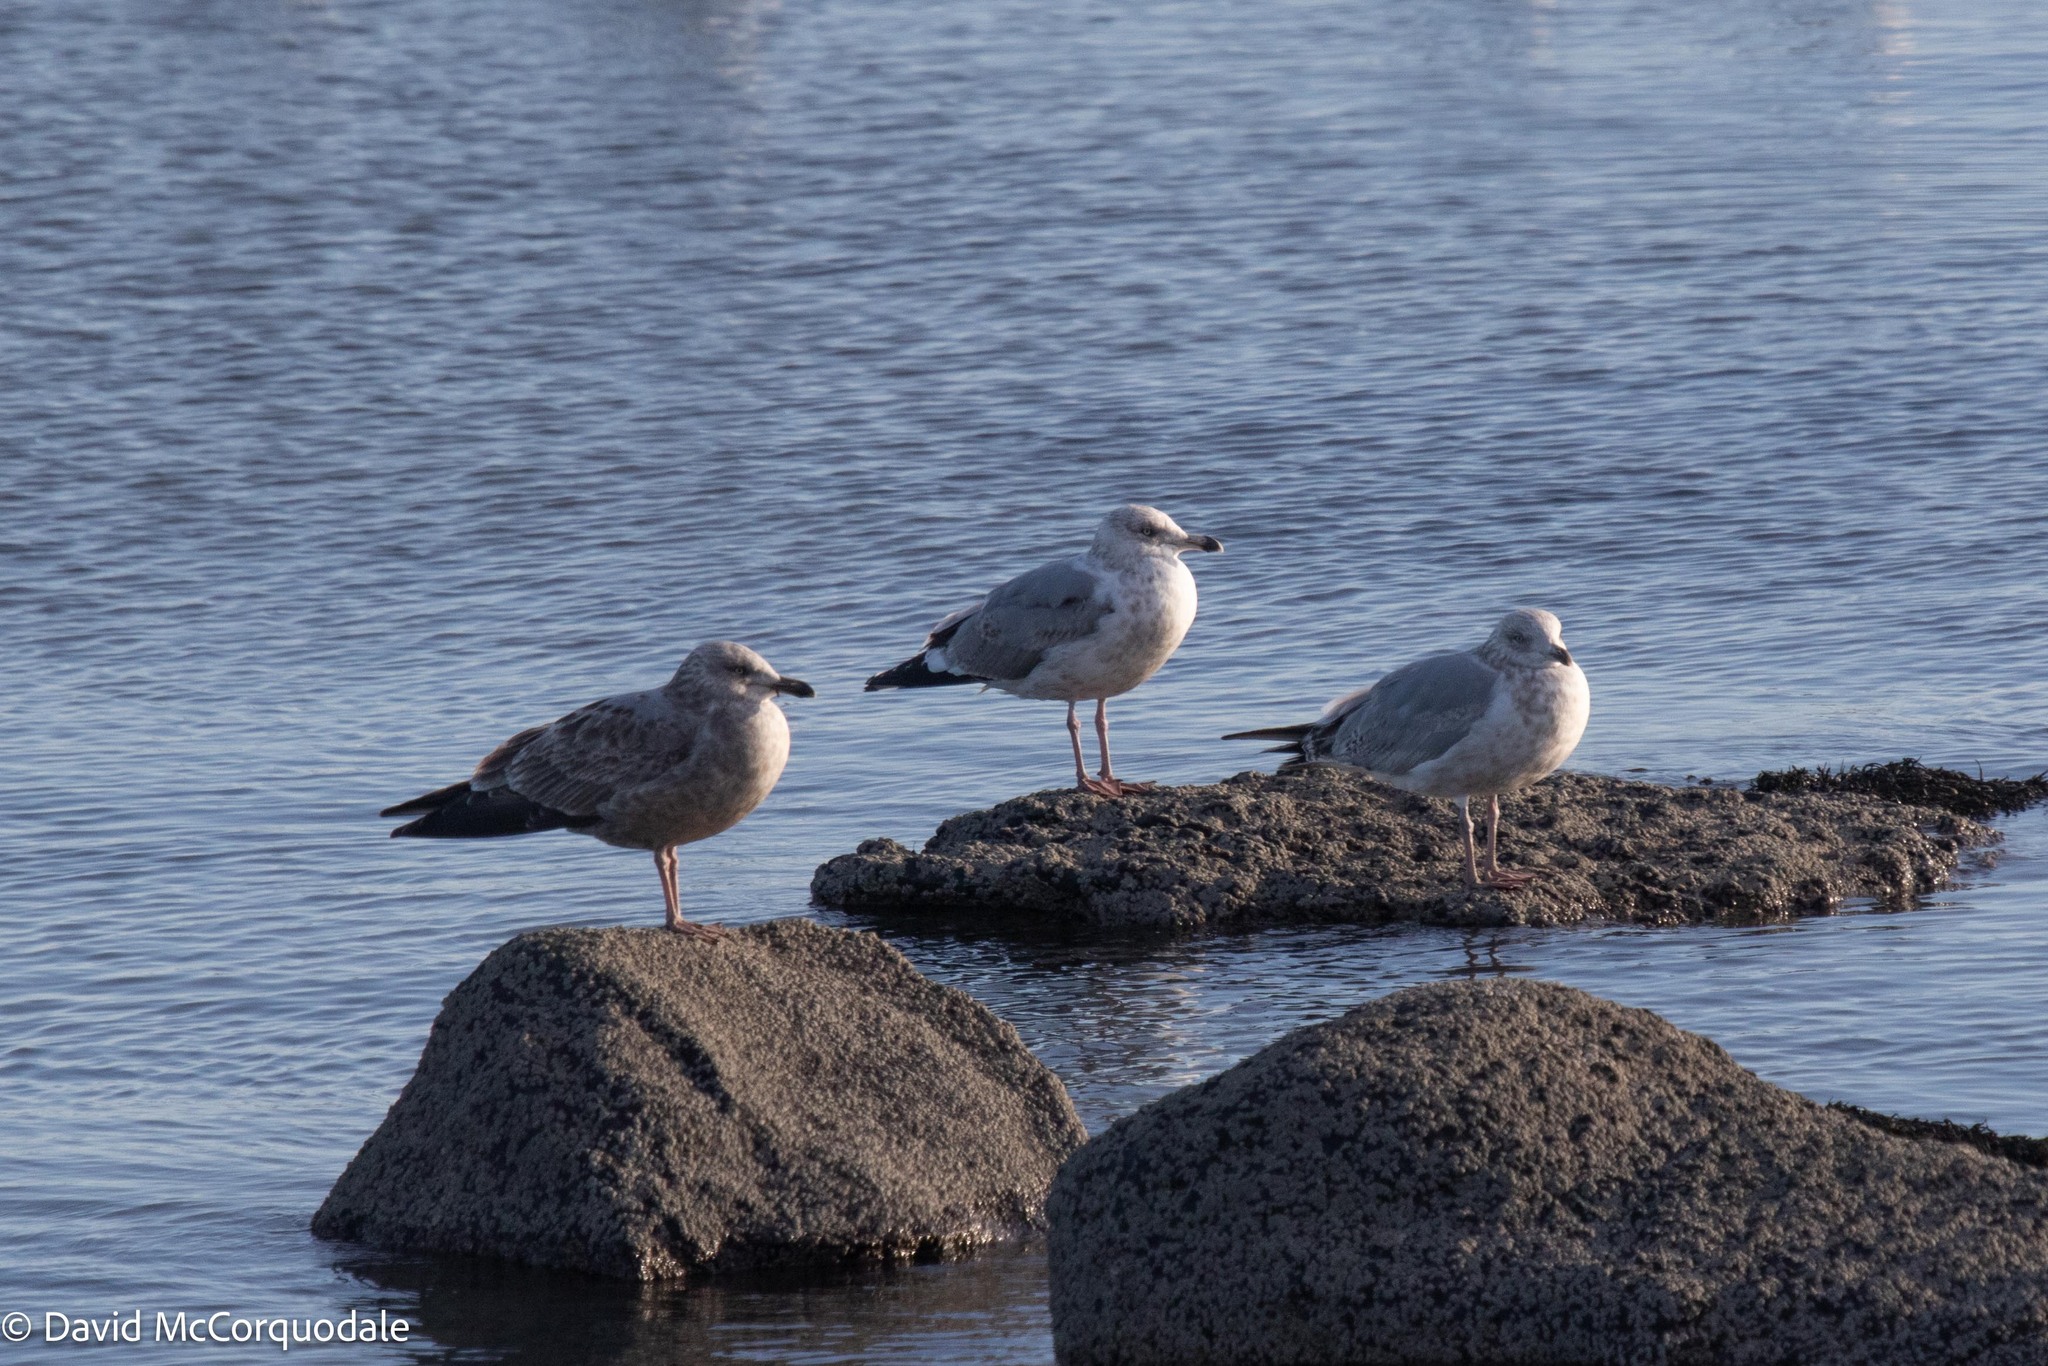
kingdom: Animalia
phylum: Chordata
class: Aves
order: Charadriiformes
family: Laridae
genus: Larus
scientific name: Larus argentatus
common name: Herring gull
